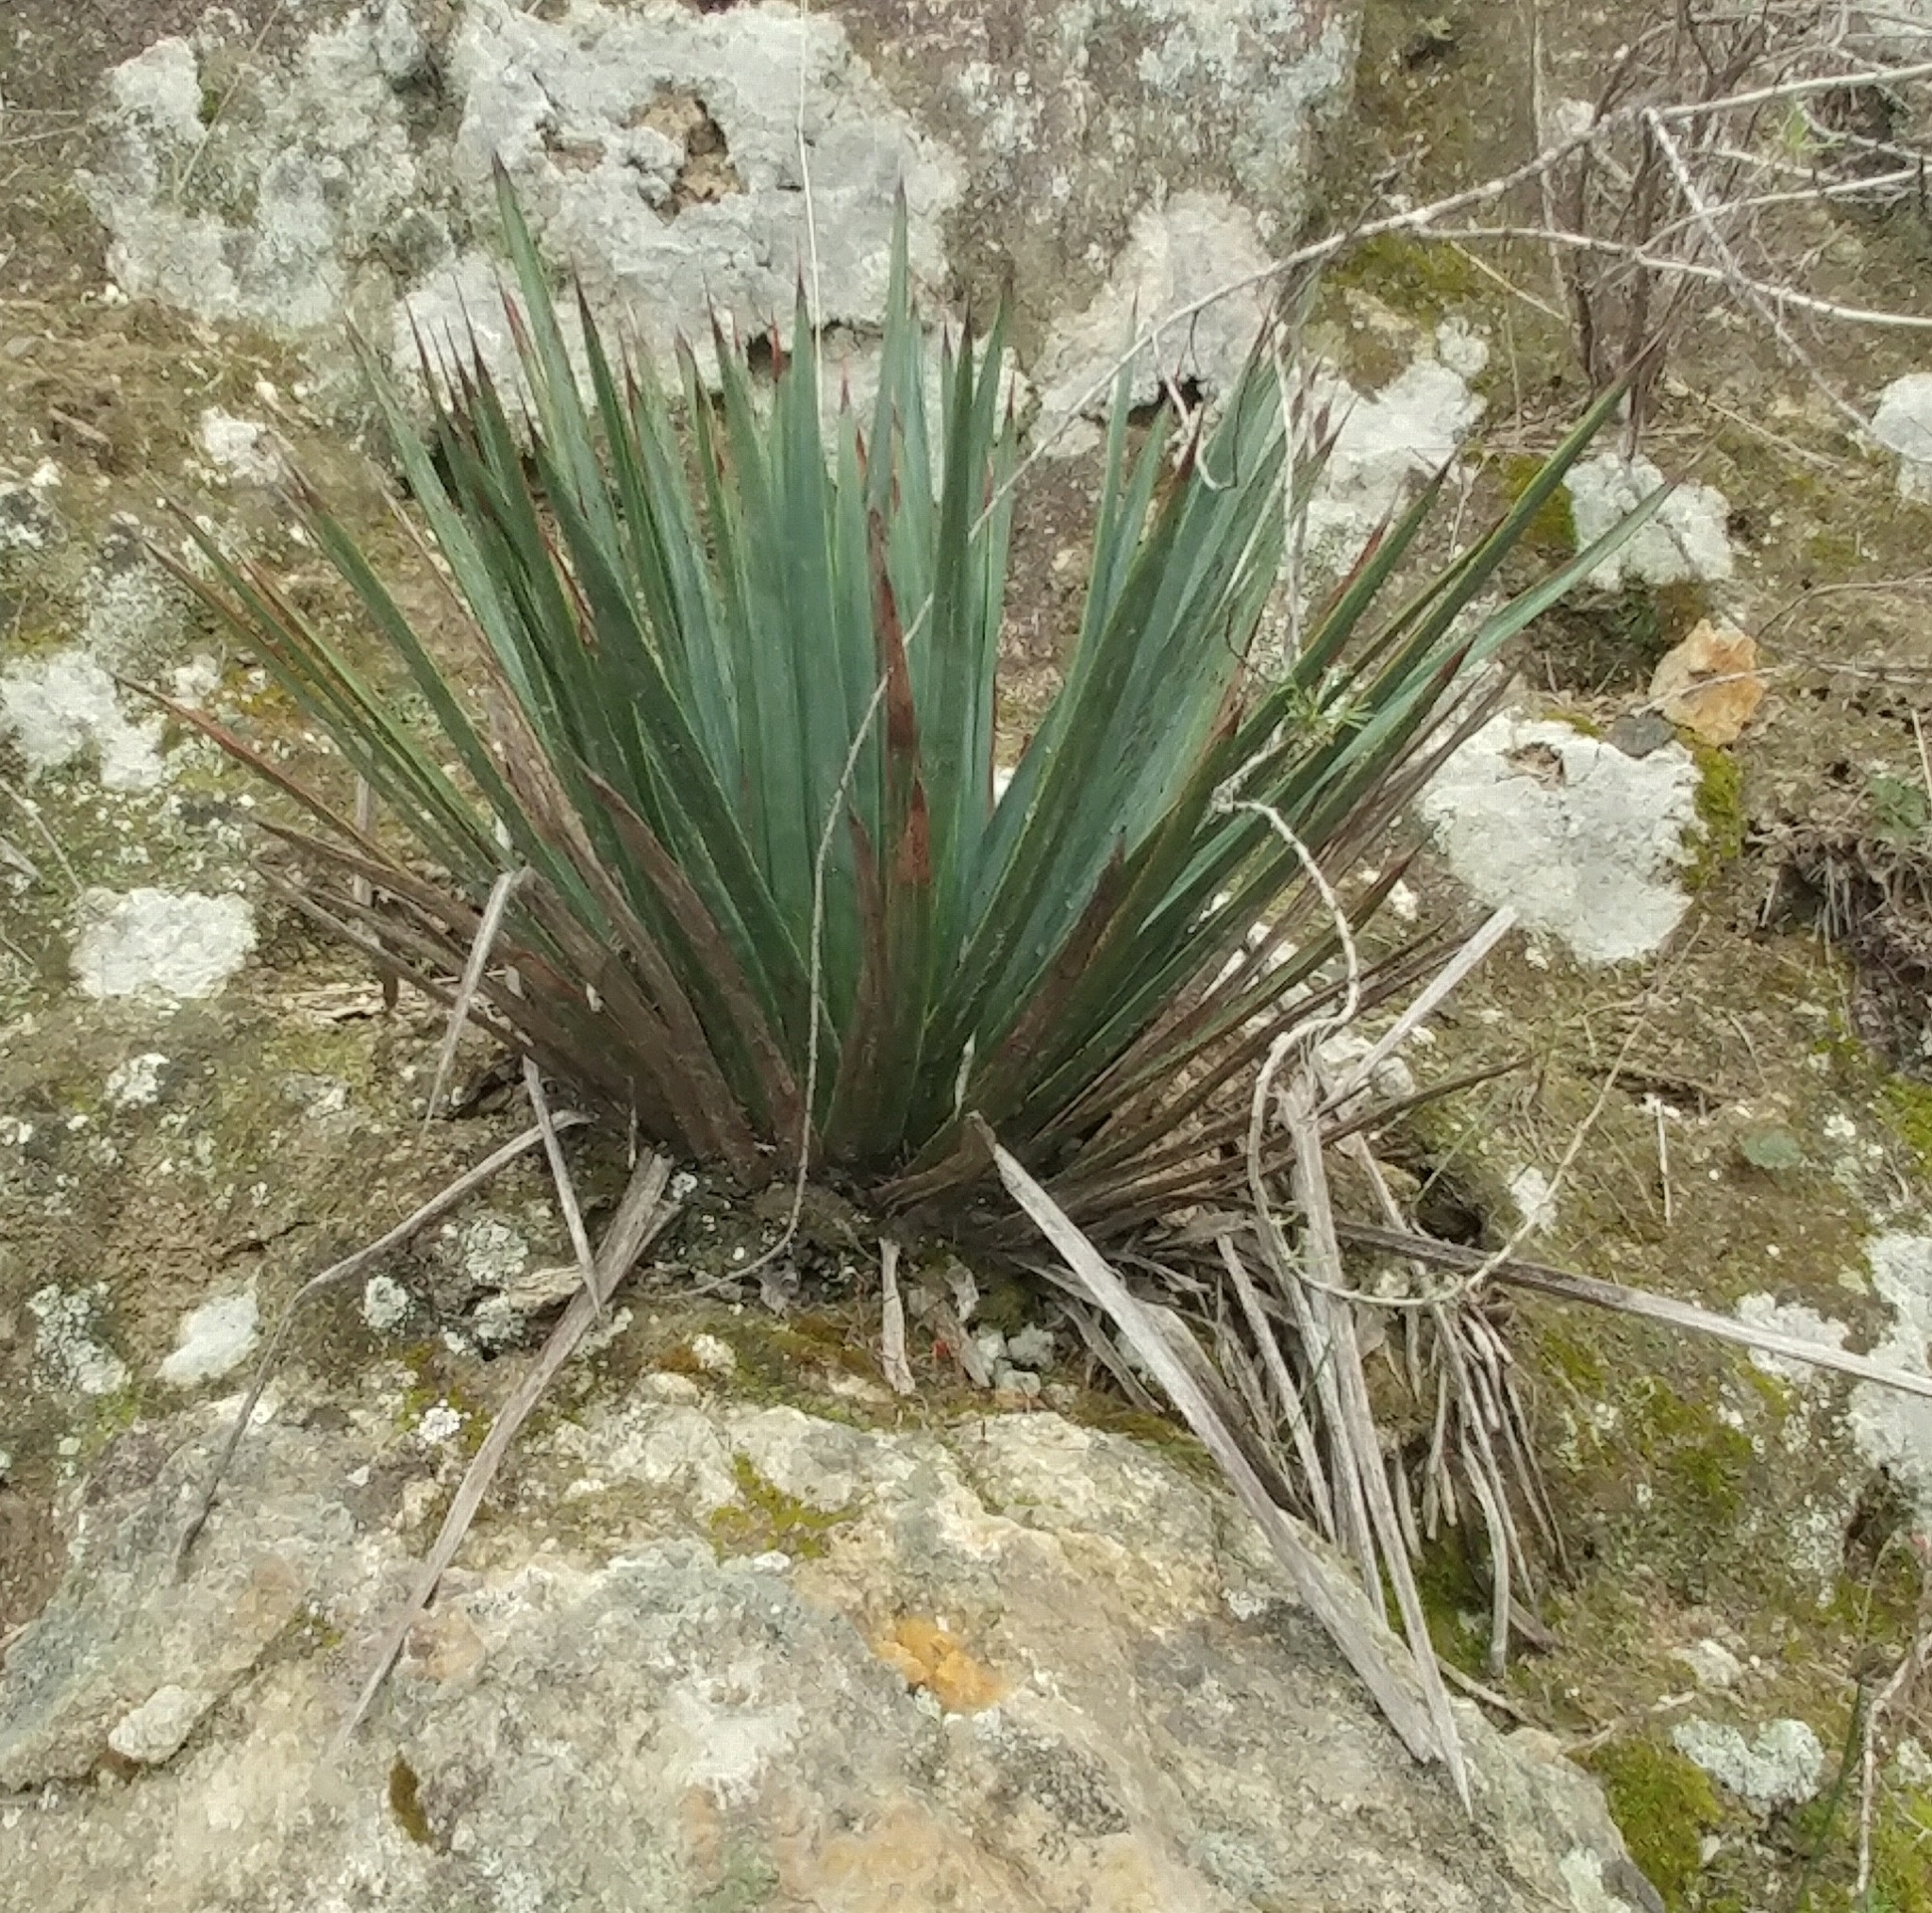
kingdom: Plantae
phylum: Tracheophyta
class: Liliopsida
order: Asparagales
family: Asparagaceae
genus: Hesperoyucca
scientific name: Hesperoyucca whipplei
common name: Our lord's-candle
